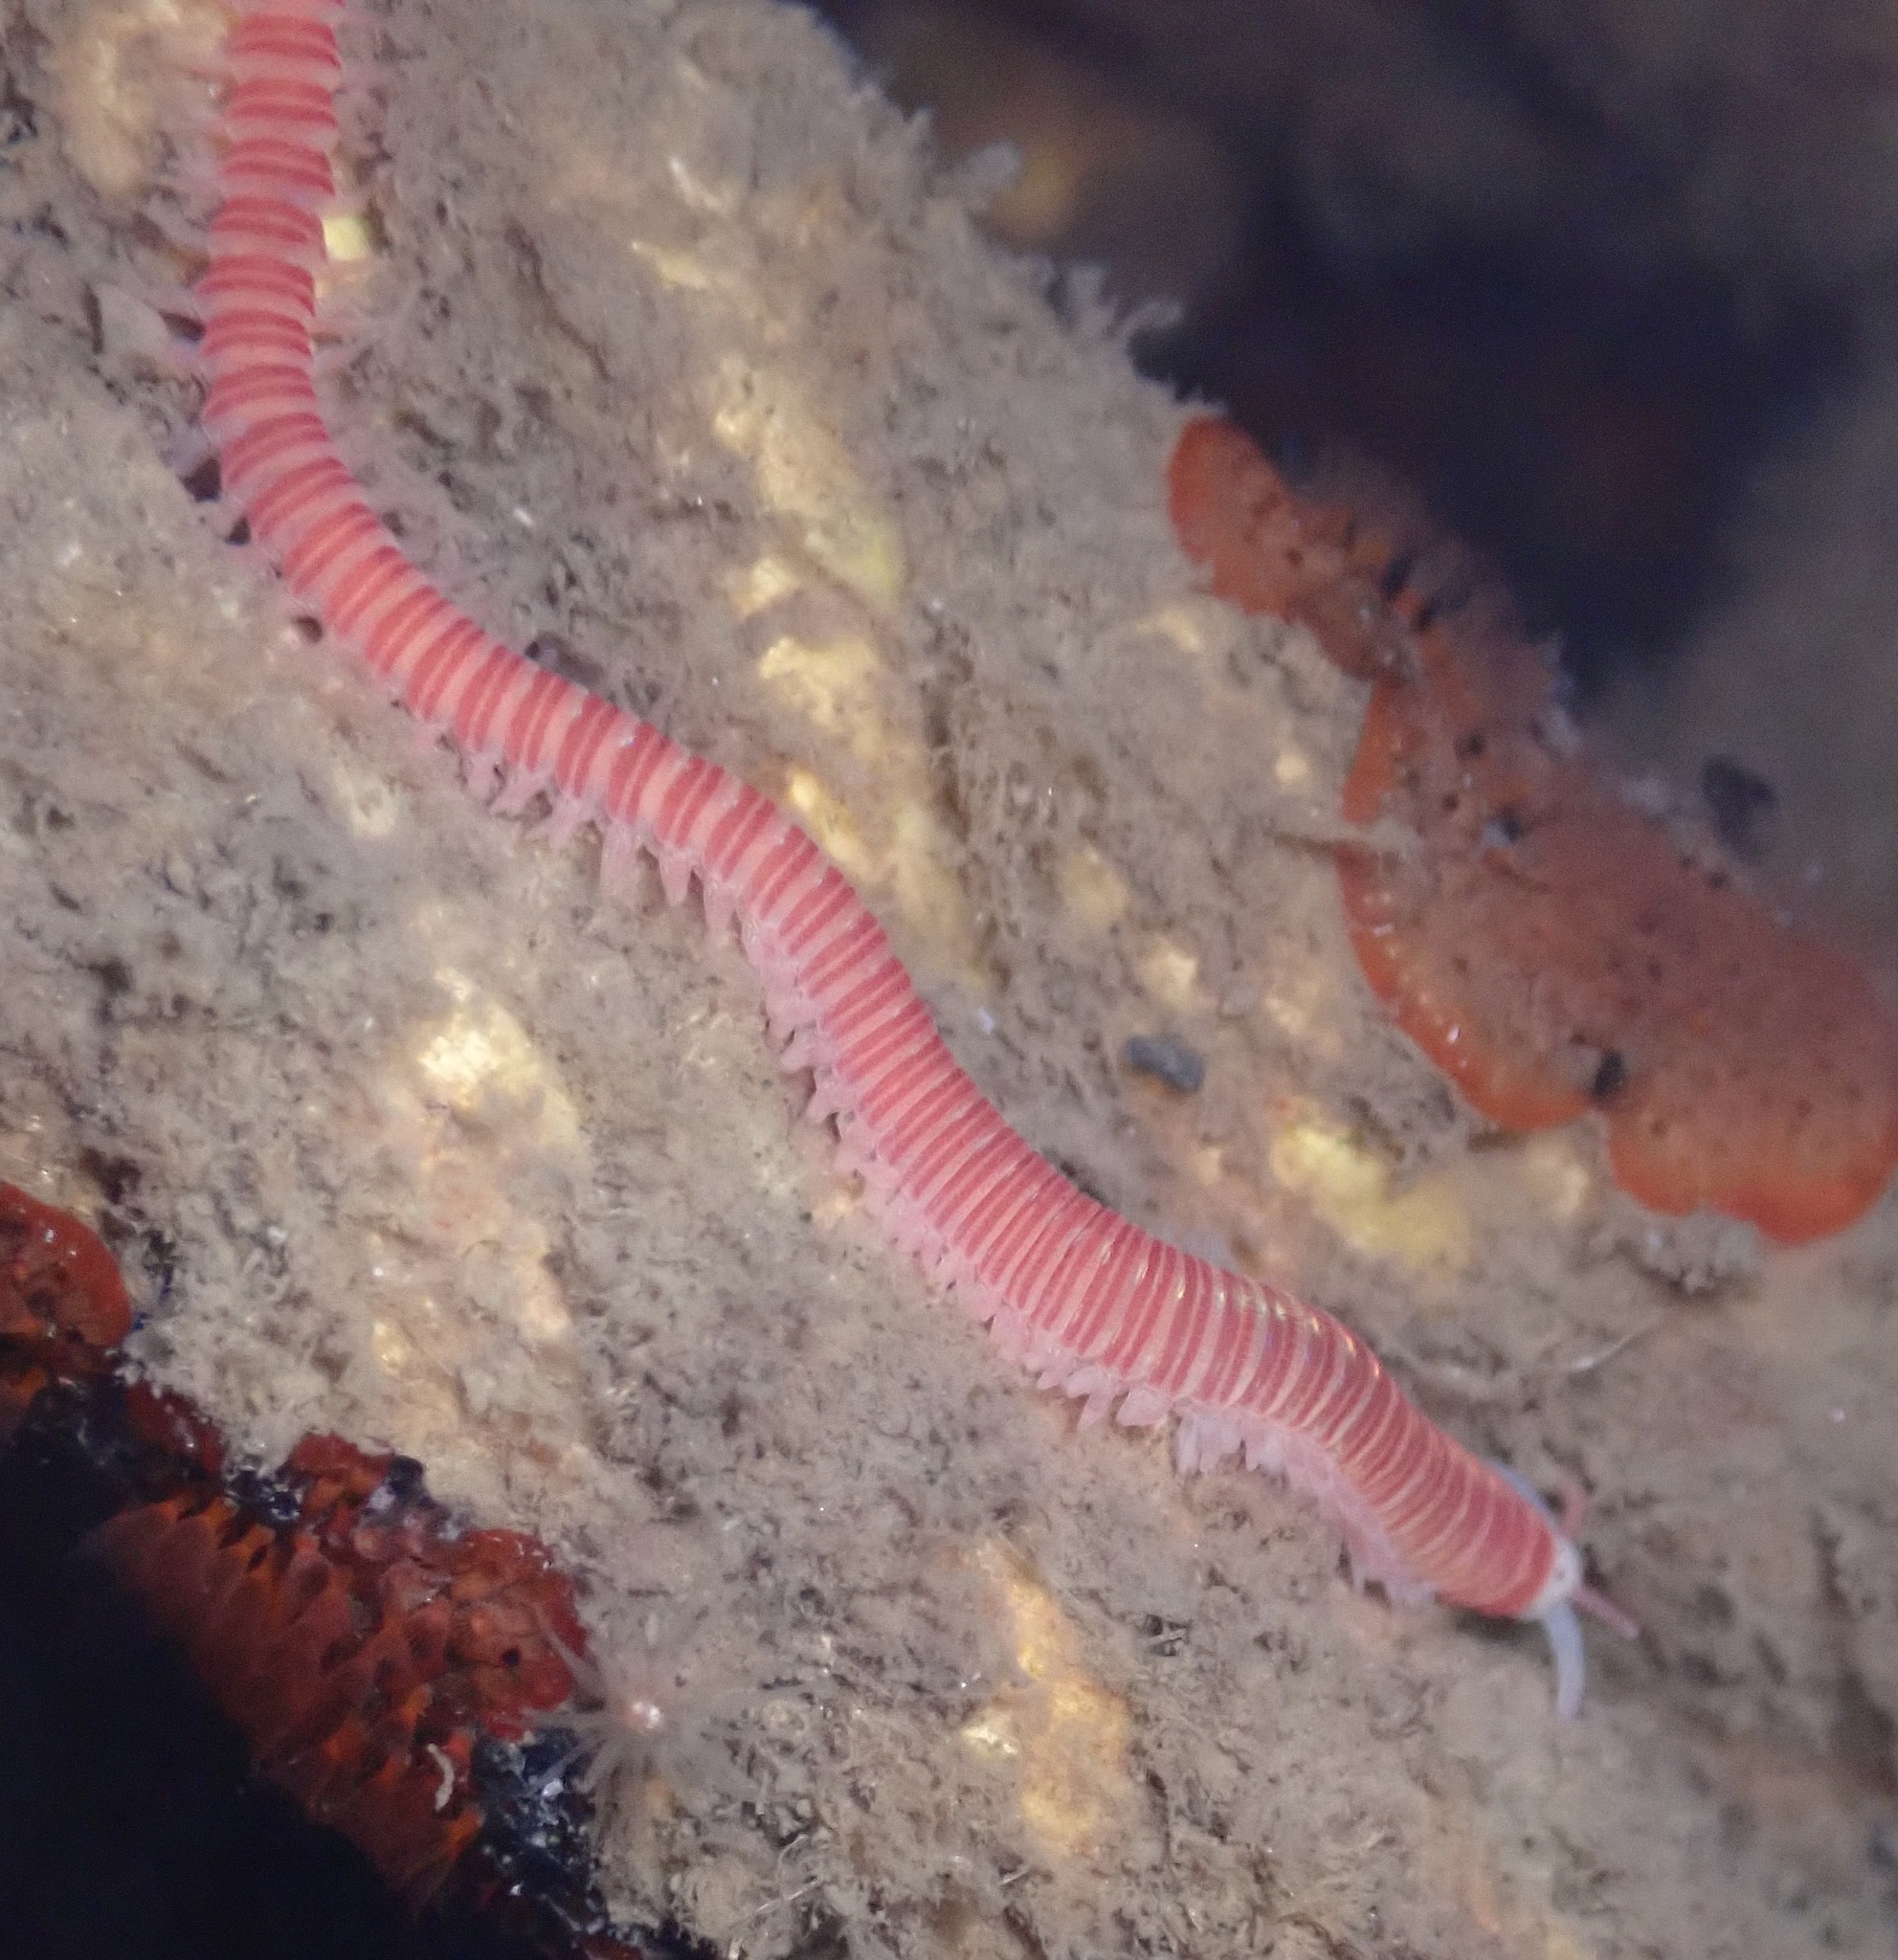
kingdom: Animalia
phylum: Annelida
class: Polychaeta
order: Eunicida
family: Dorvilleidae
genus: Dorvillea
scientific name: Dorvillea moniloceras
